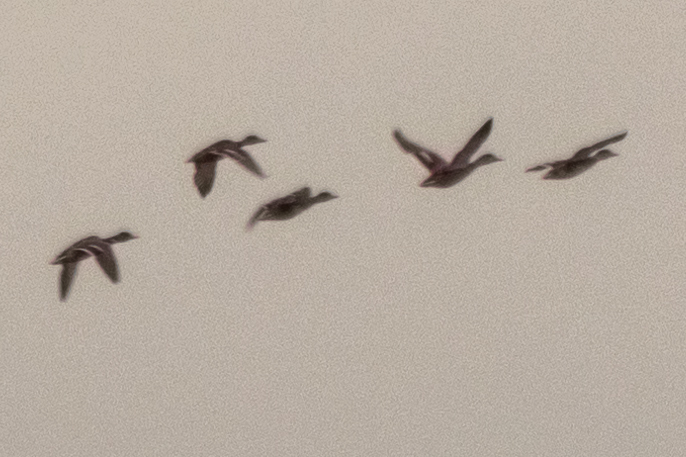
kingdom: Animalia
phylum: Chordata
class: Aves
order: Anseriformes
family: Anatidae
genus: Anas
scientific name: Anas platyrhynchos
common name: Mallard
